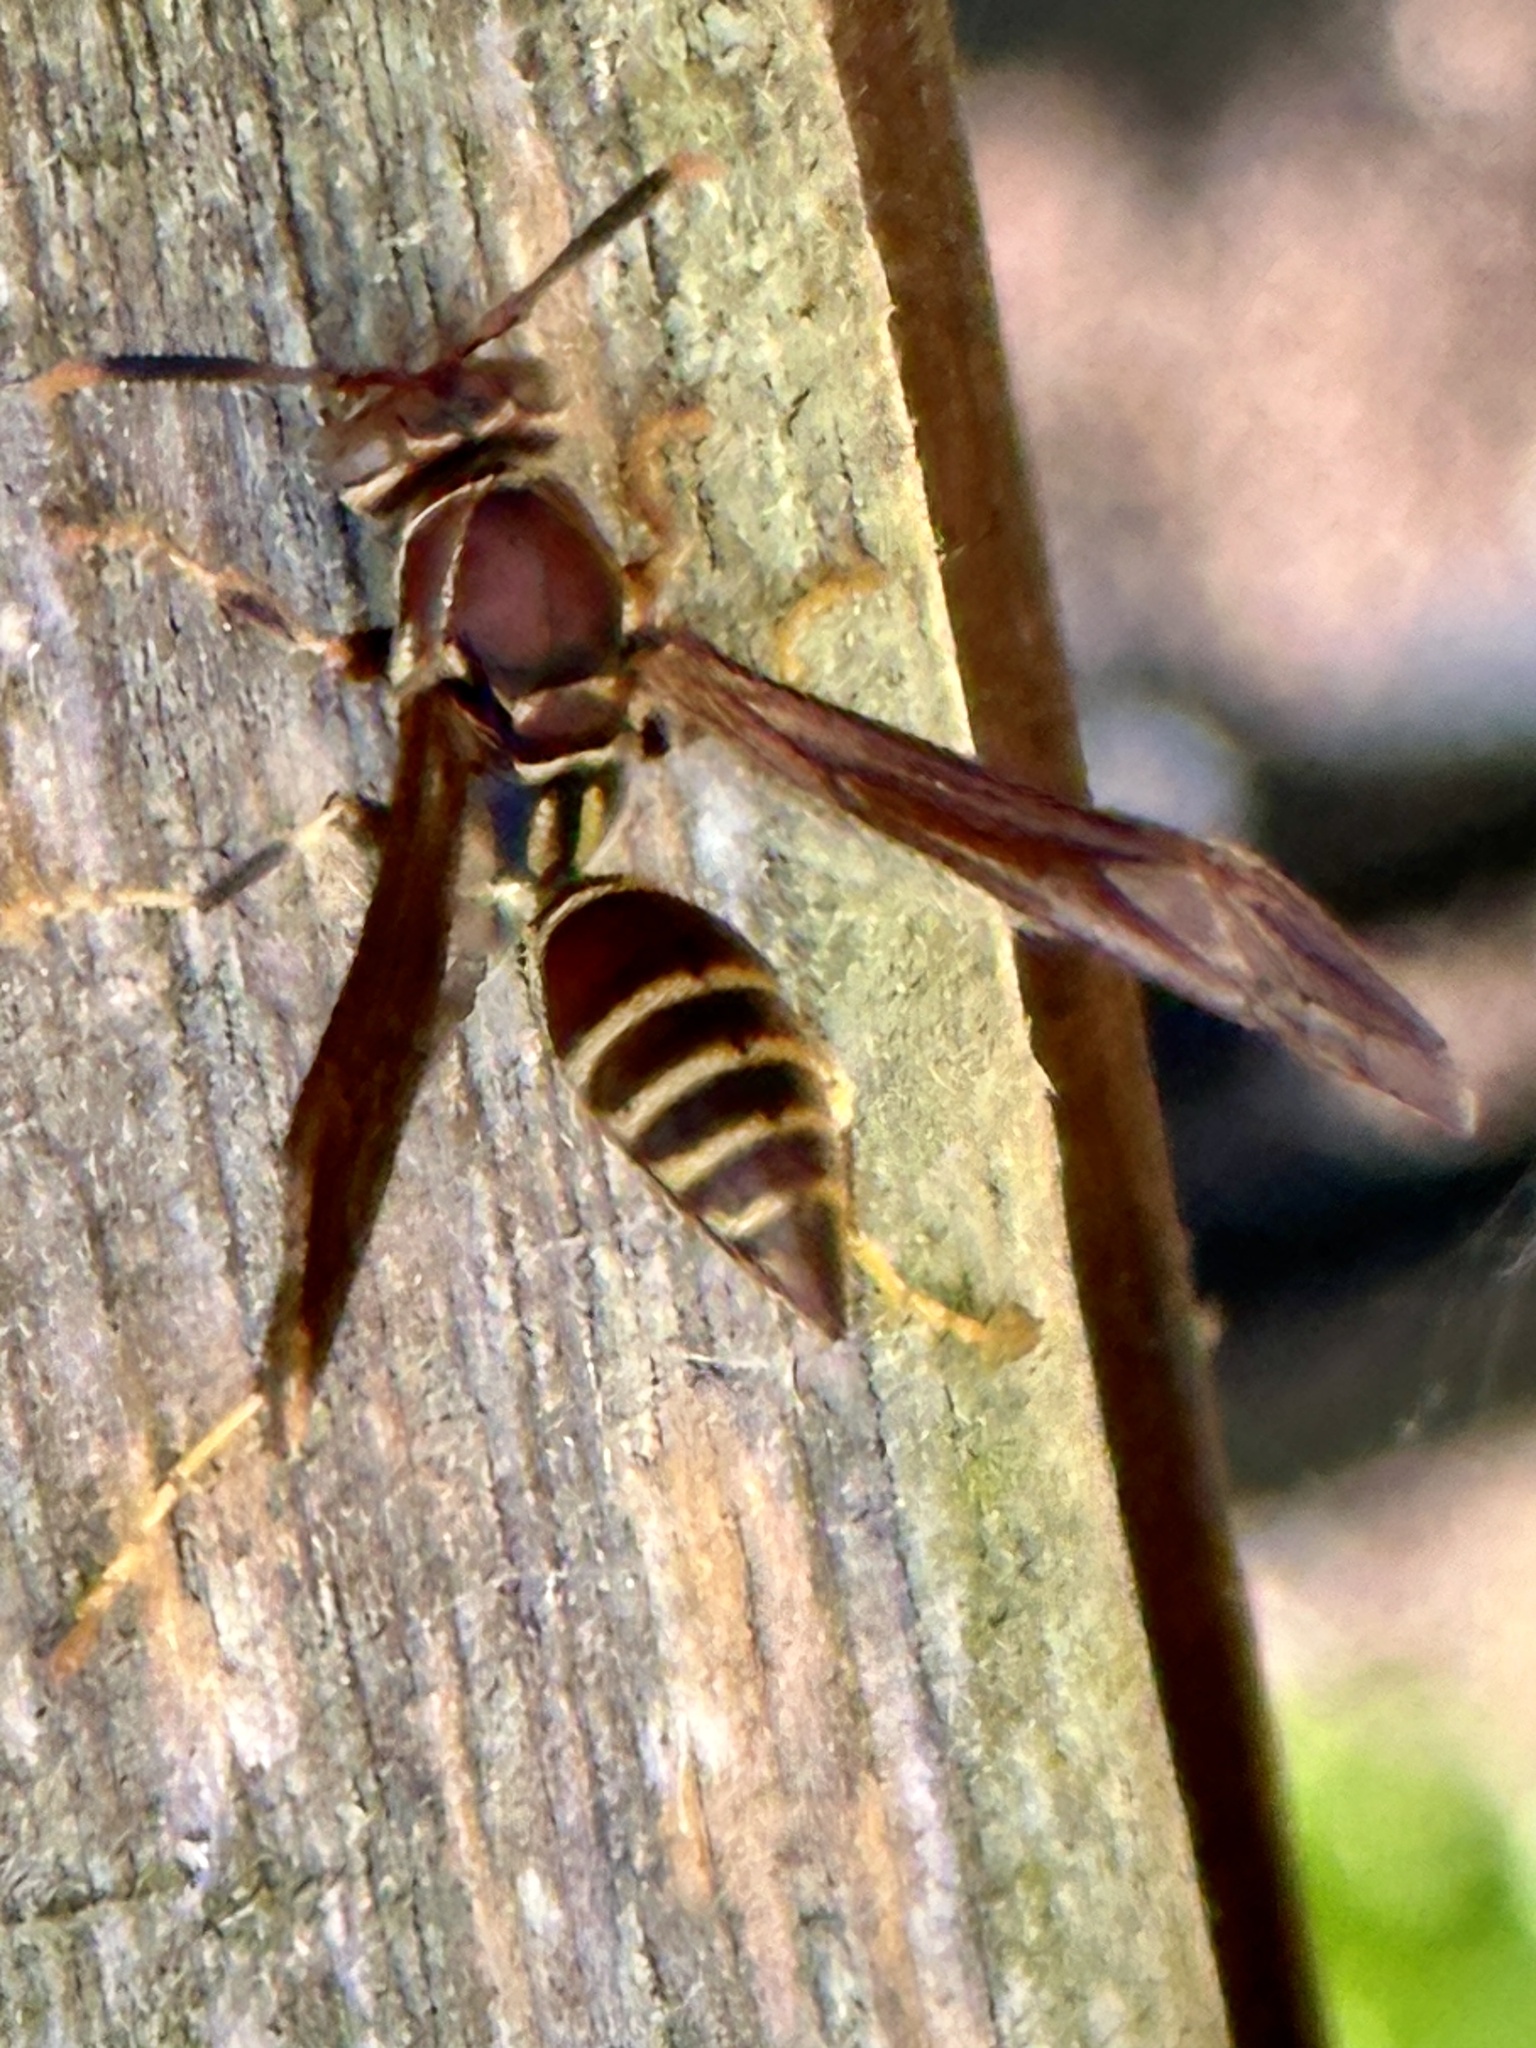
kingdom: Animalia
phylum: Arthropoda
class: Insecta
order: Hymenoptera
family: Eumenidae
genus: Polistes
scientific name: Polistes exclamans
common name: Paper wasp
